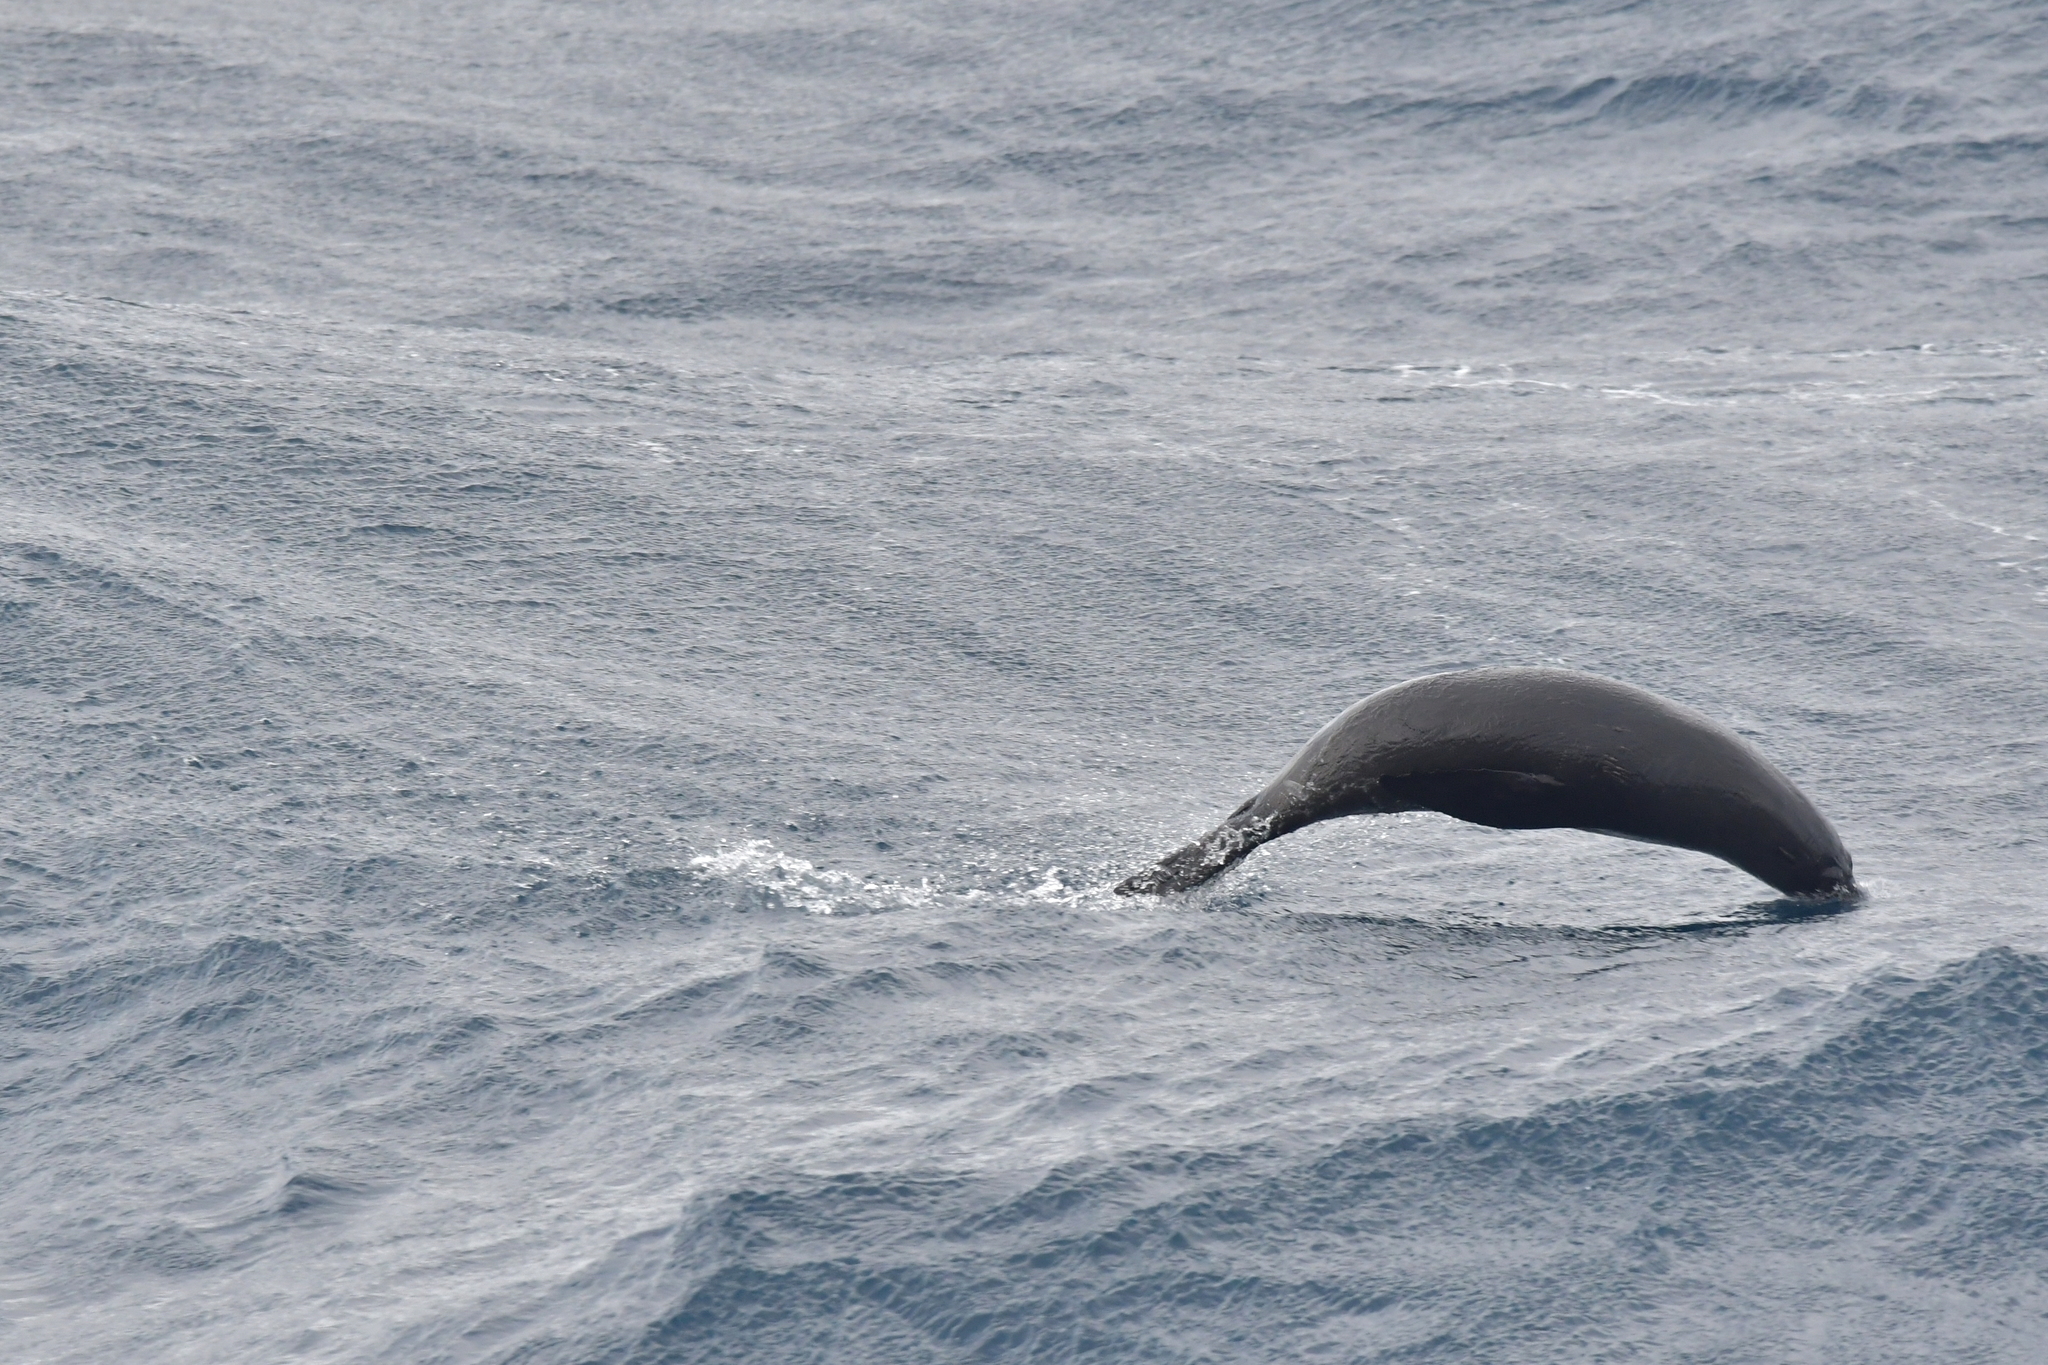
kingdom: Animalia
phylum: Chordata
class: Mammalia
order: Carnivora
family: Otariidae
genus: Arctocephalus
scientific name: Arctocephalus forsteri
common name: New zealand fur seal
